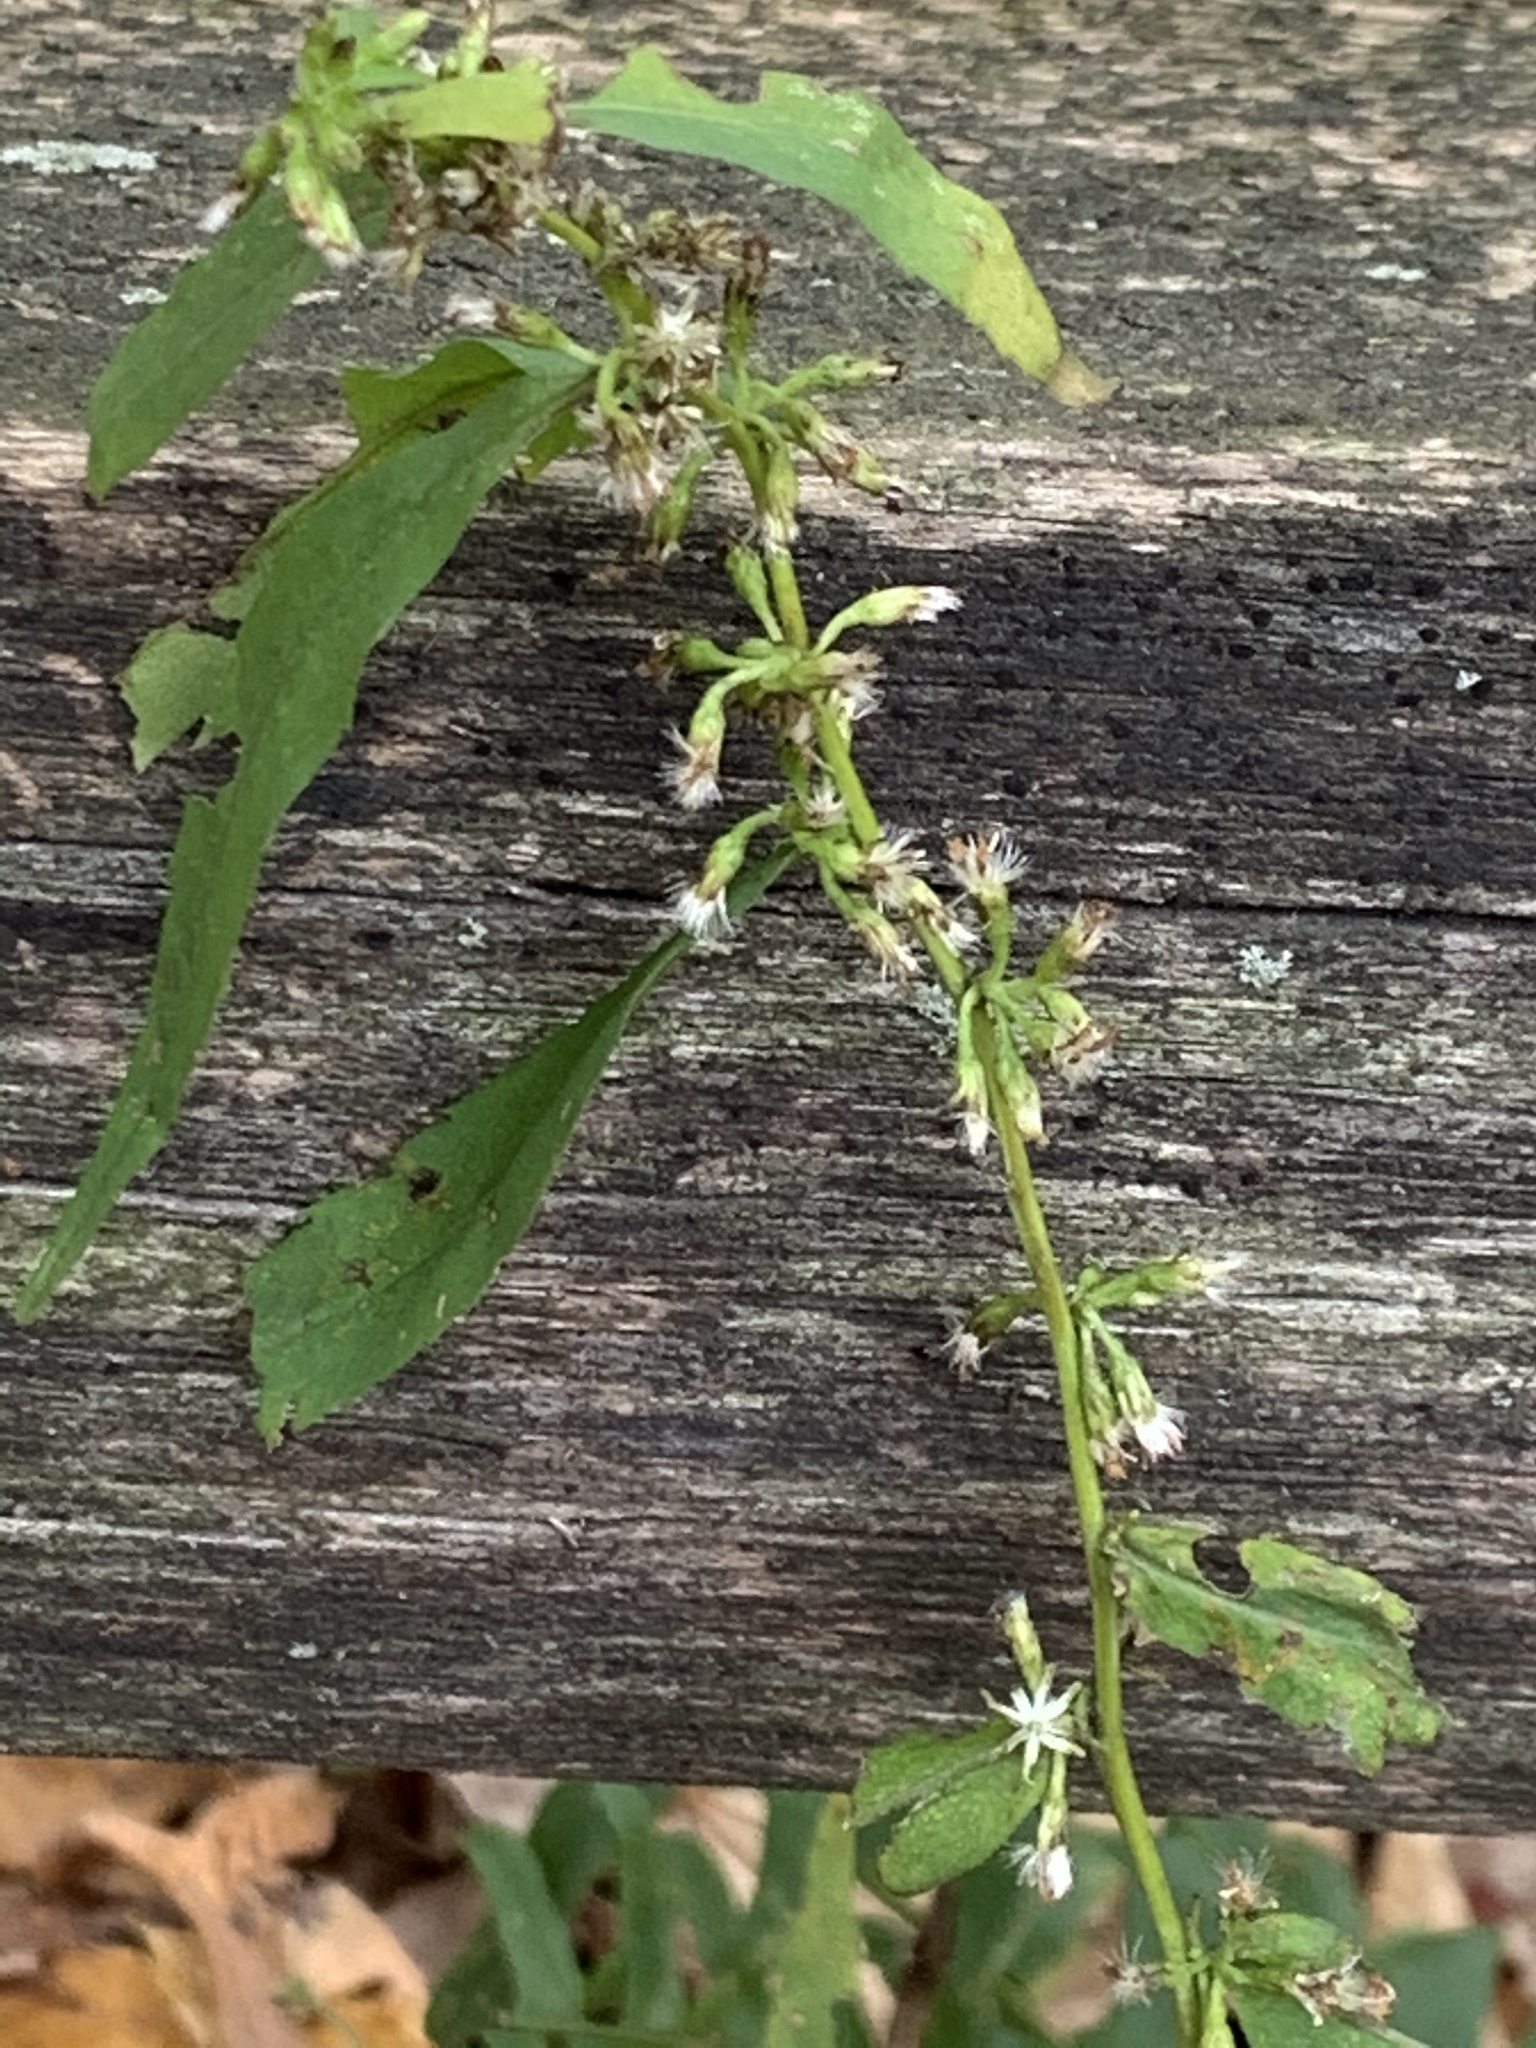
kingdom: Plantae
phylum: Tracheophyta
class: Magnoliopsida
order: Asterales
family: Asteraceae
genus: Solidago
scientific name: Solidago caesia
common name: Woodland goldenrod
